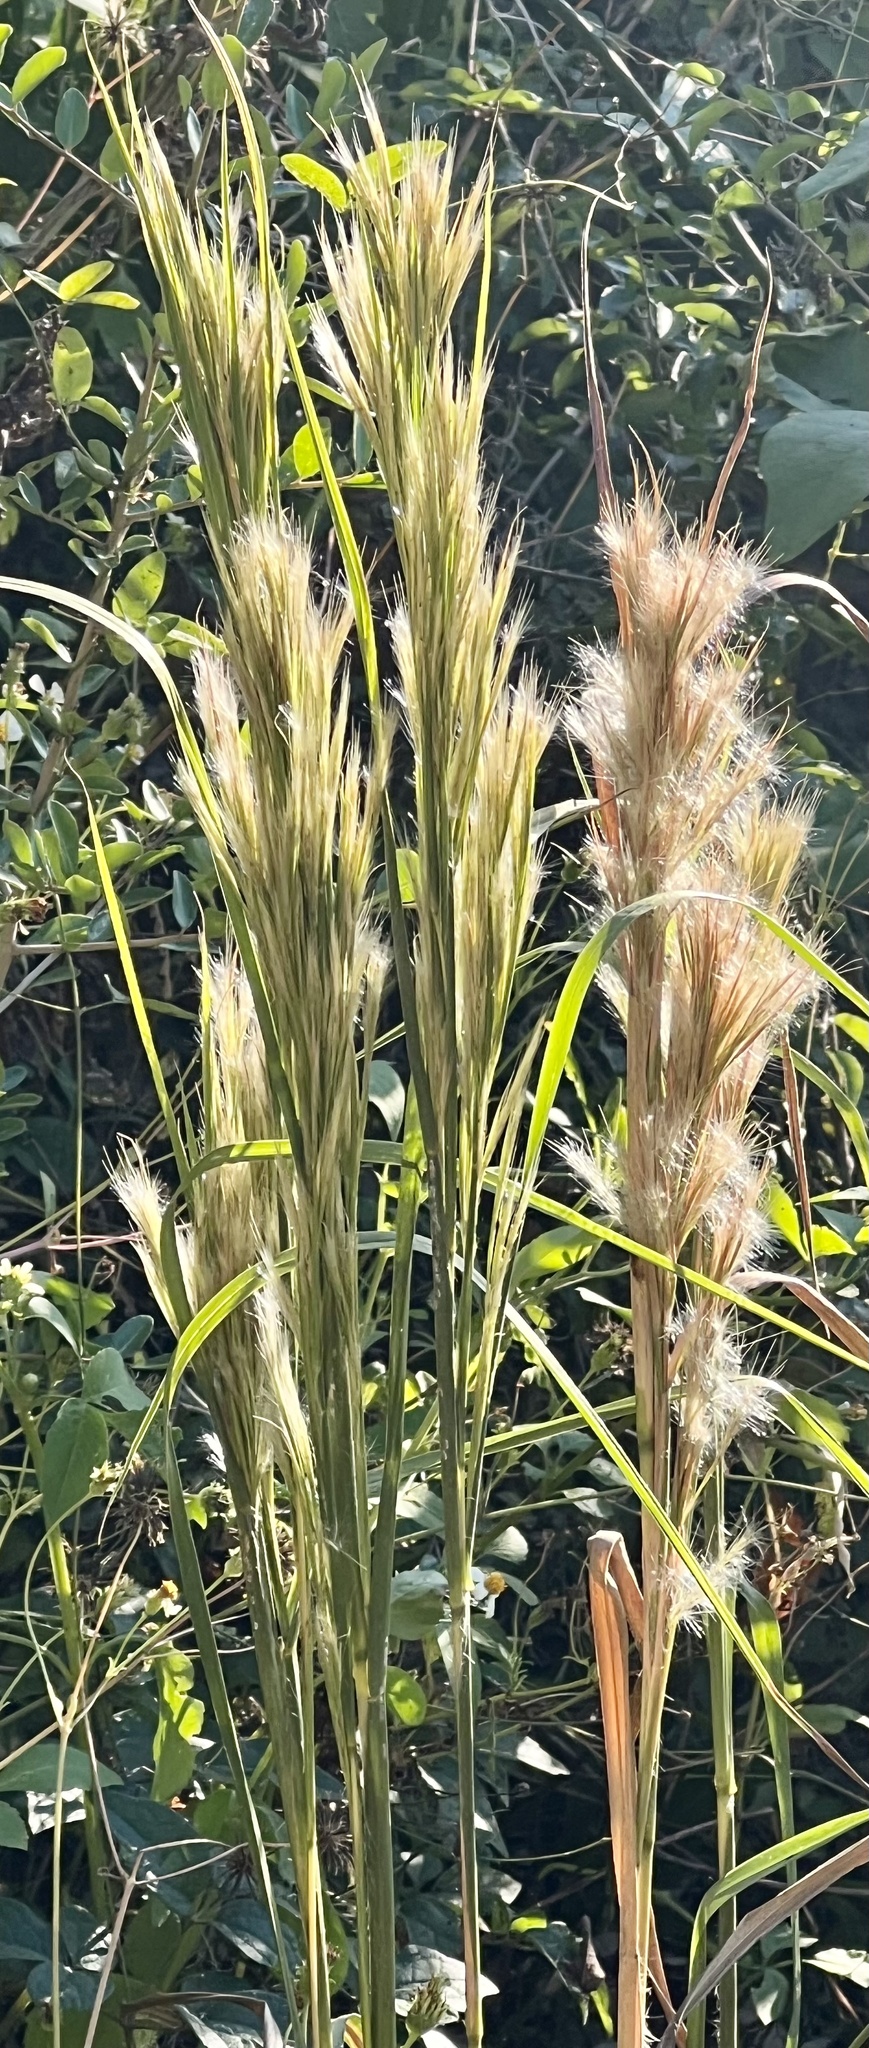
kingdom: Plantae
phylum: Tracheophyta
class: Liliopsida
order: Poales
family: Poaceae
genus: Andropogon
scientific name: Andropogon tenuispatheus
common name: Bushy bluestem
